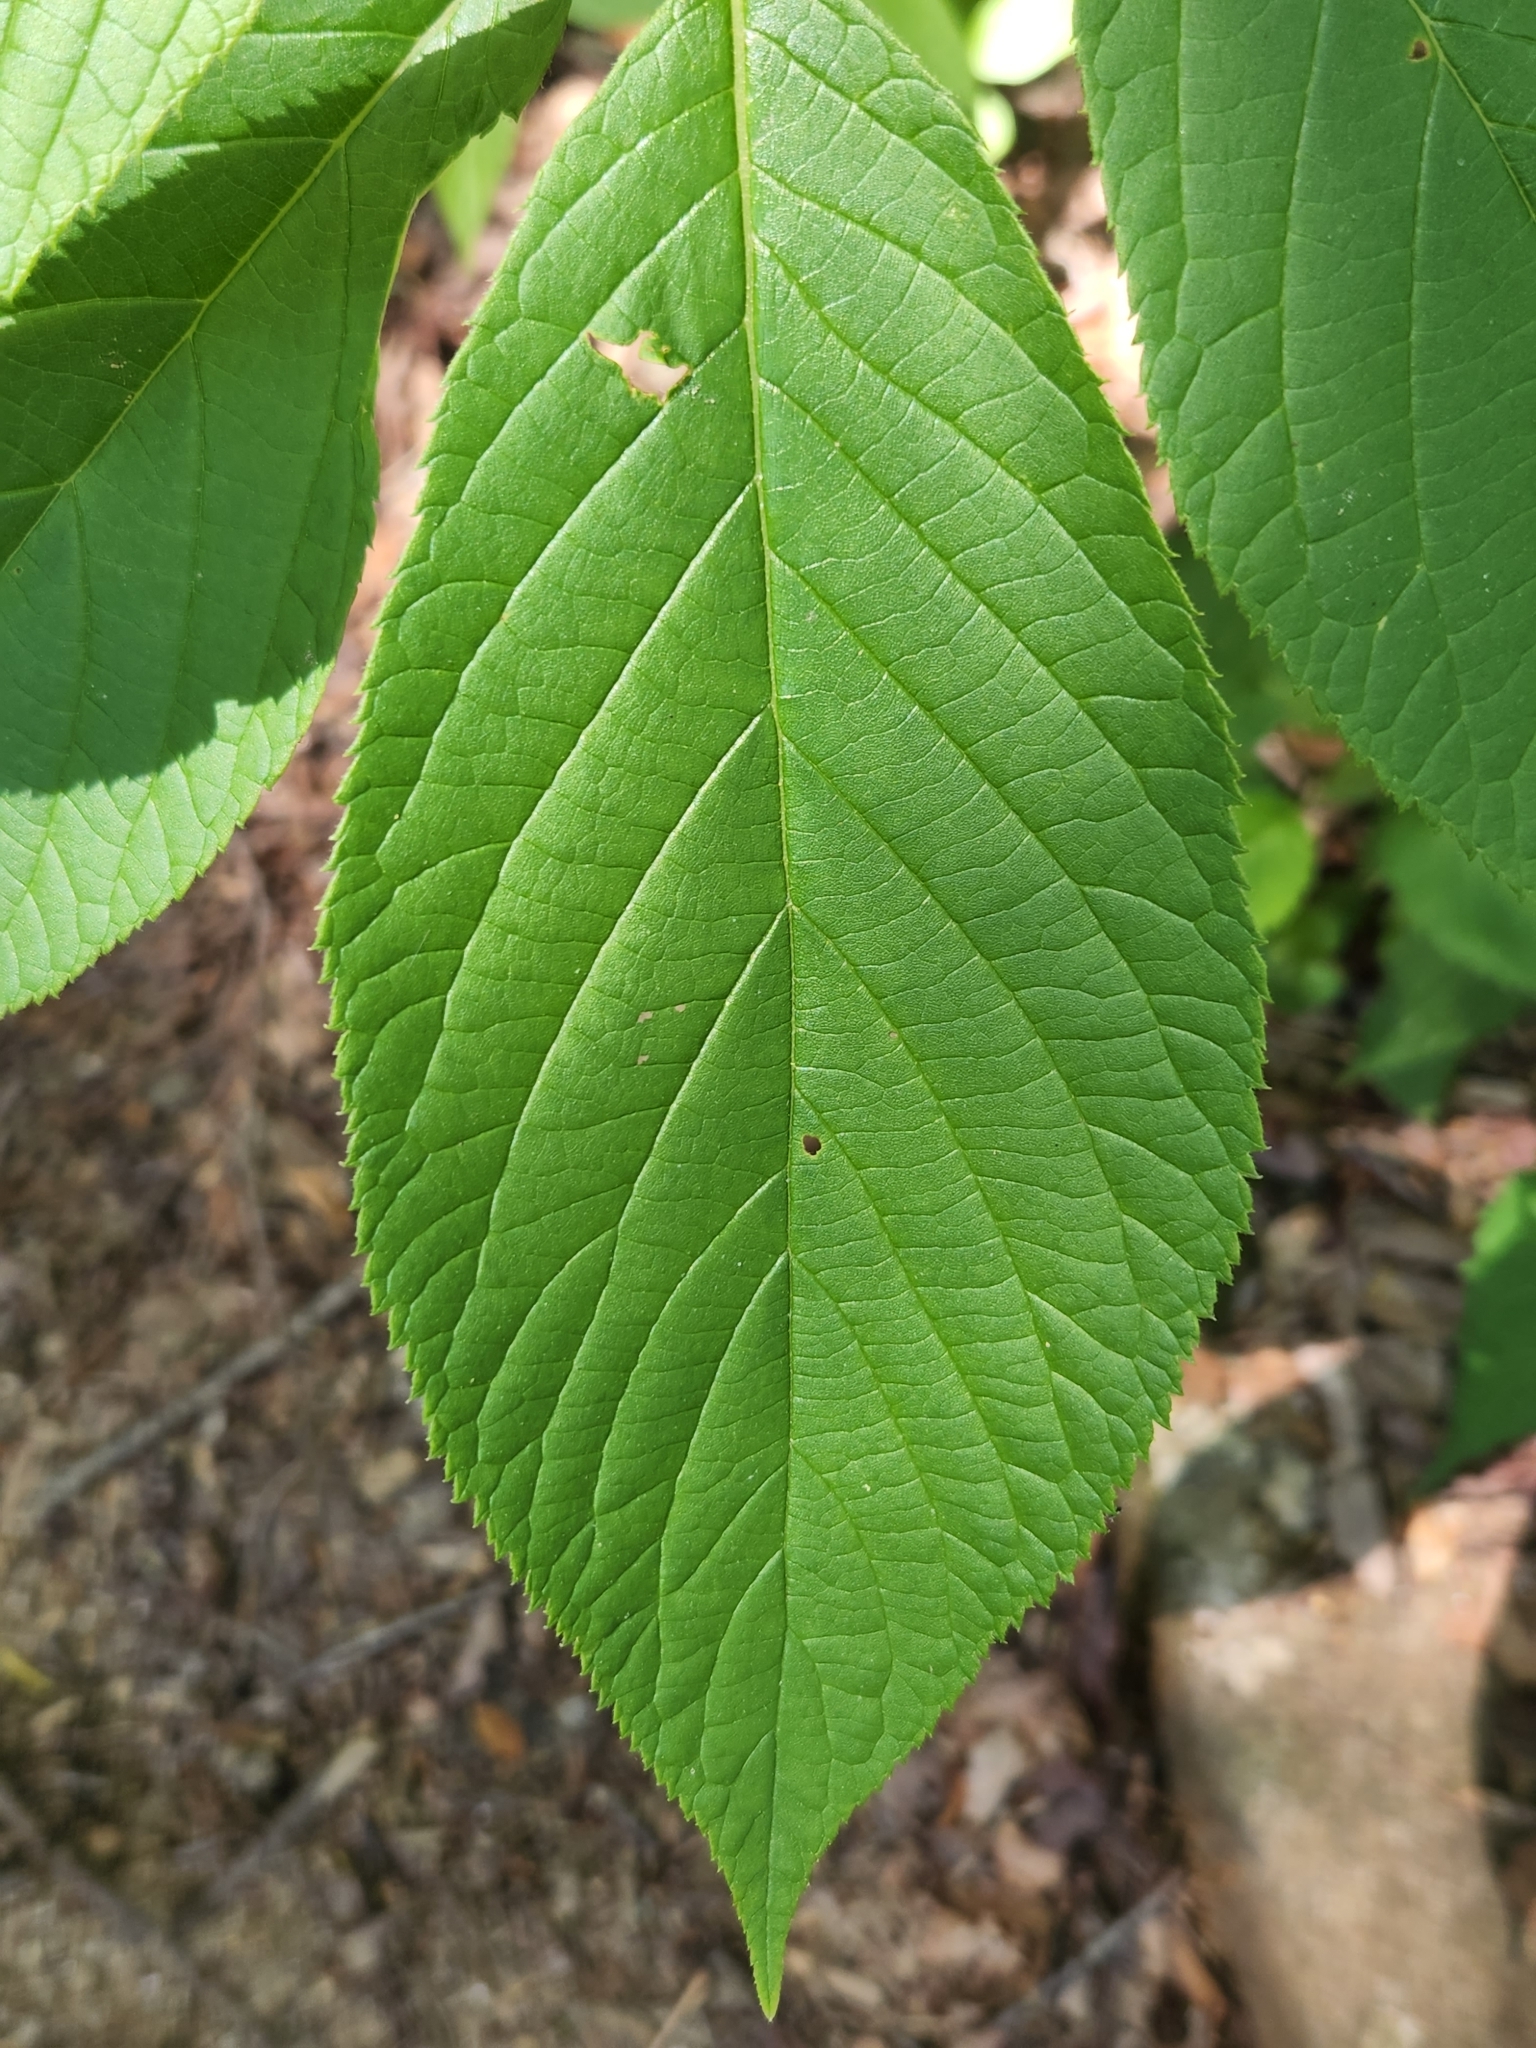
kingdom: Plantae
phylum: Tracheophyta
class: Magnoliopsida
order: Ericales
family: Clethraceae
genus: Clethra
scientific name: Clethra acuminata
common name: Mountain sweet pepperbush
